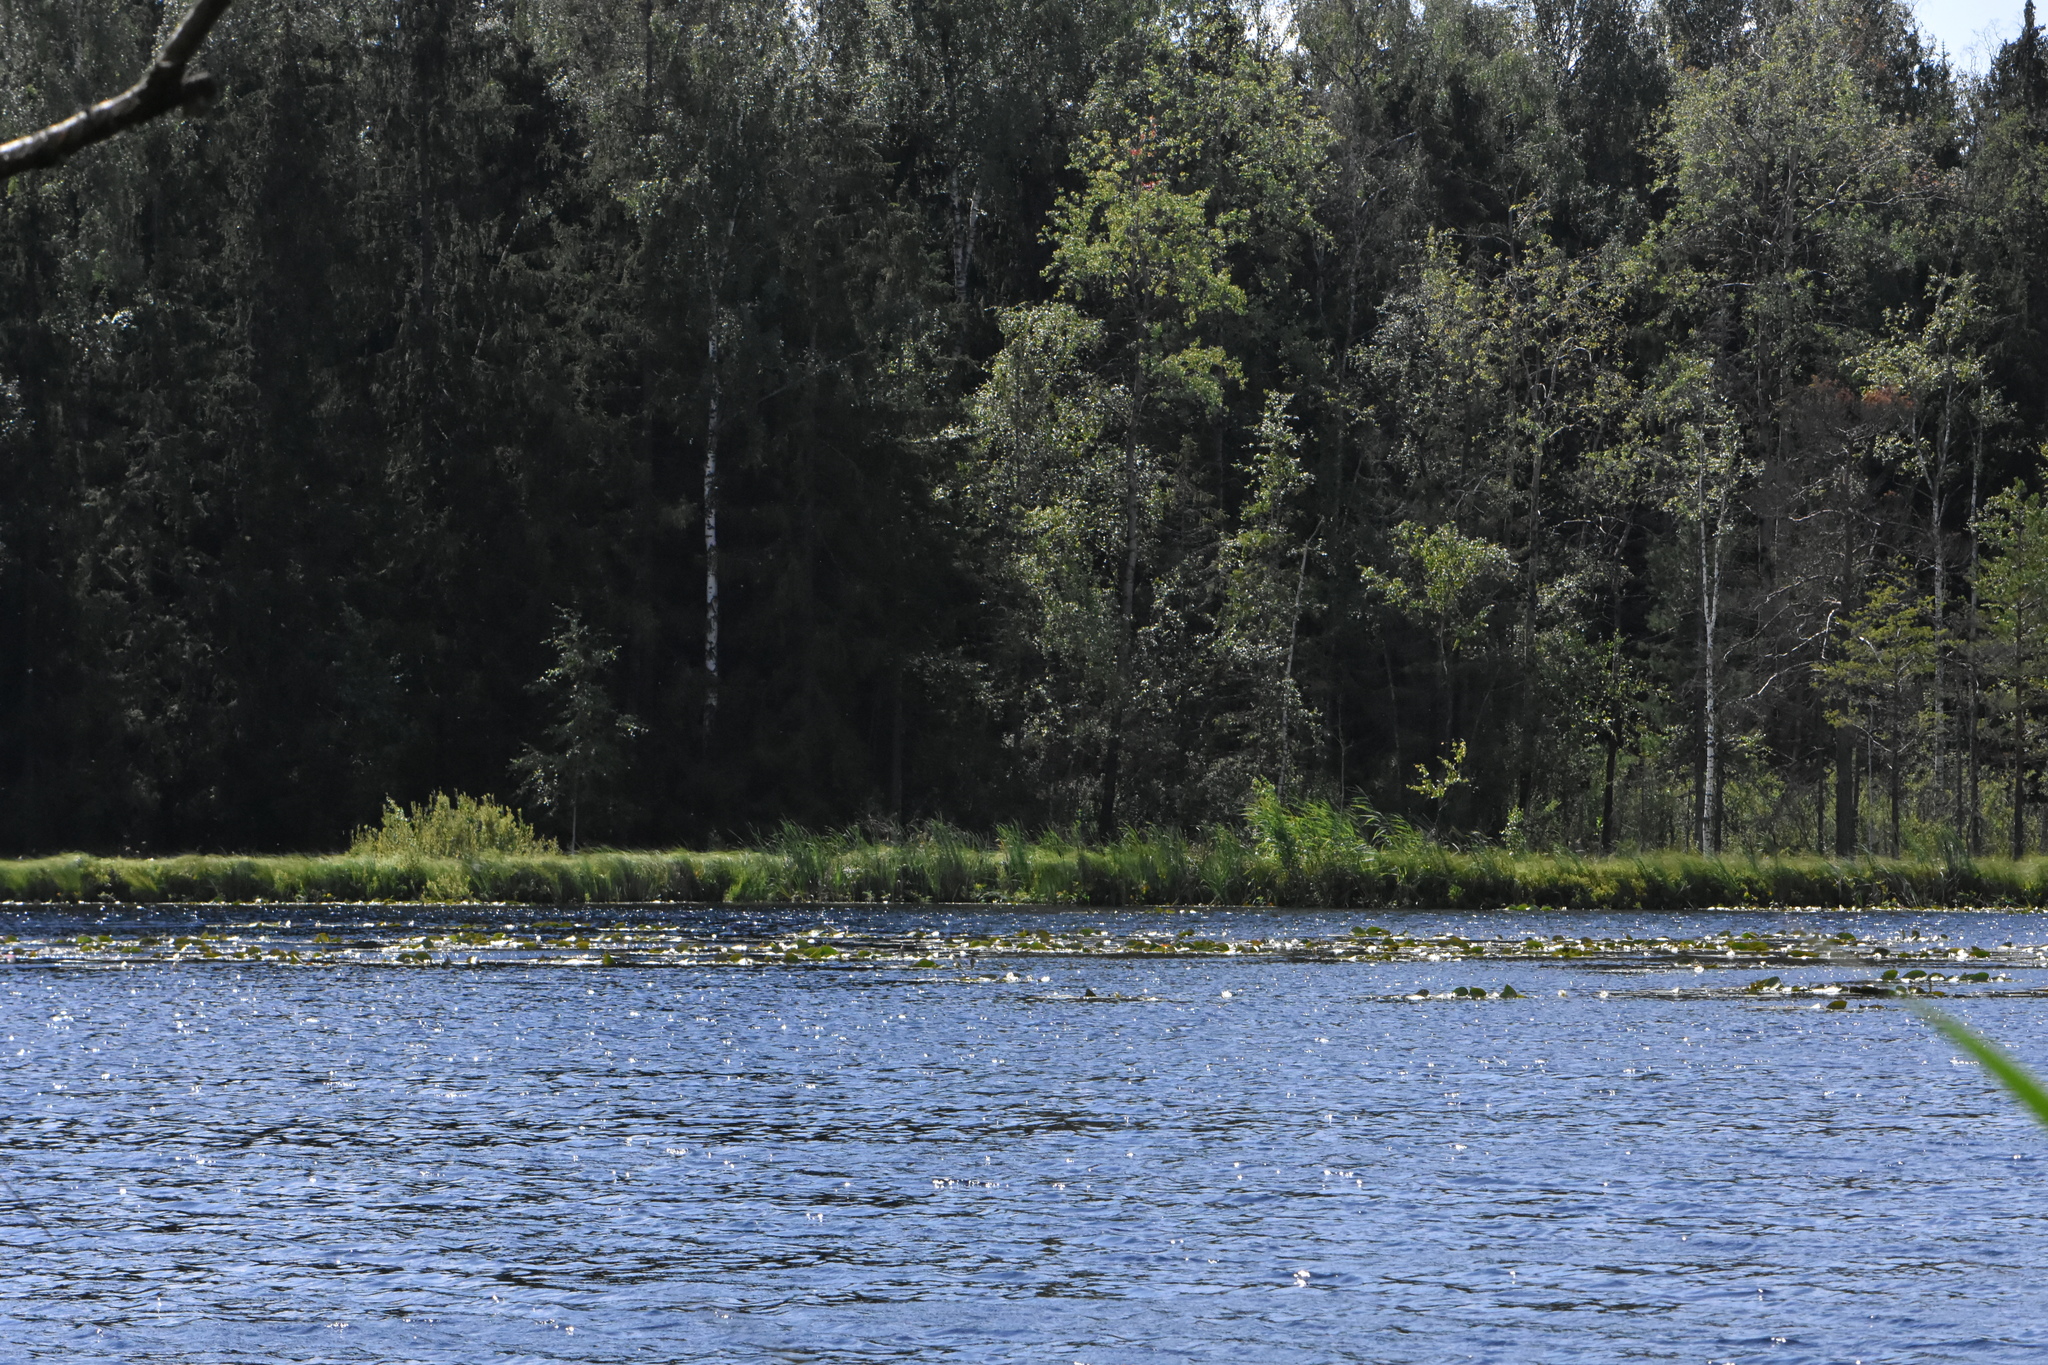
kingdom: Plantae
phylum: Tracheophyta
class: Magnoliopsida
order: Nymphaeales
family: Nymphaeaceae
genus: Nymphaea
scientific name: Nymphaea candida
